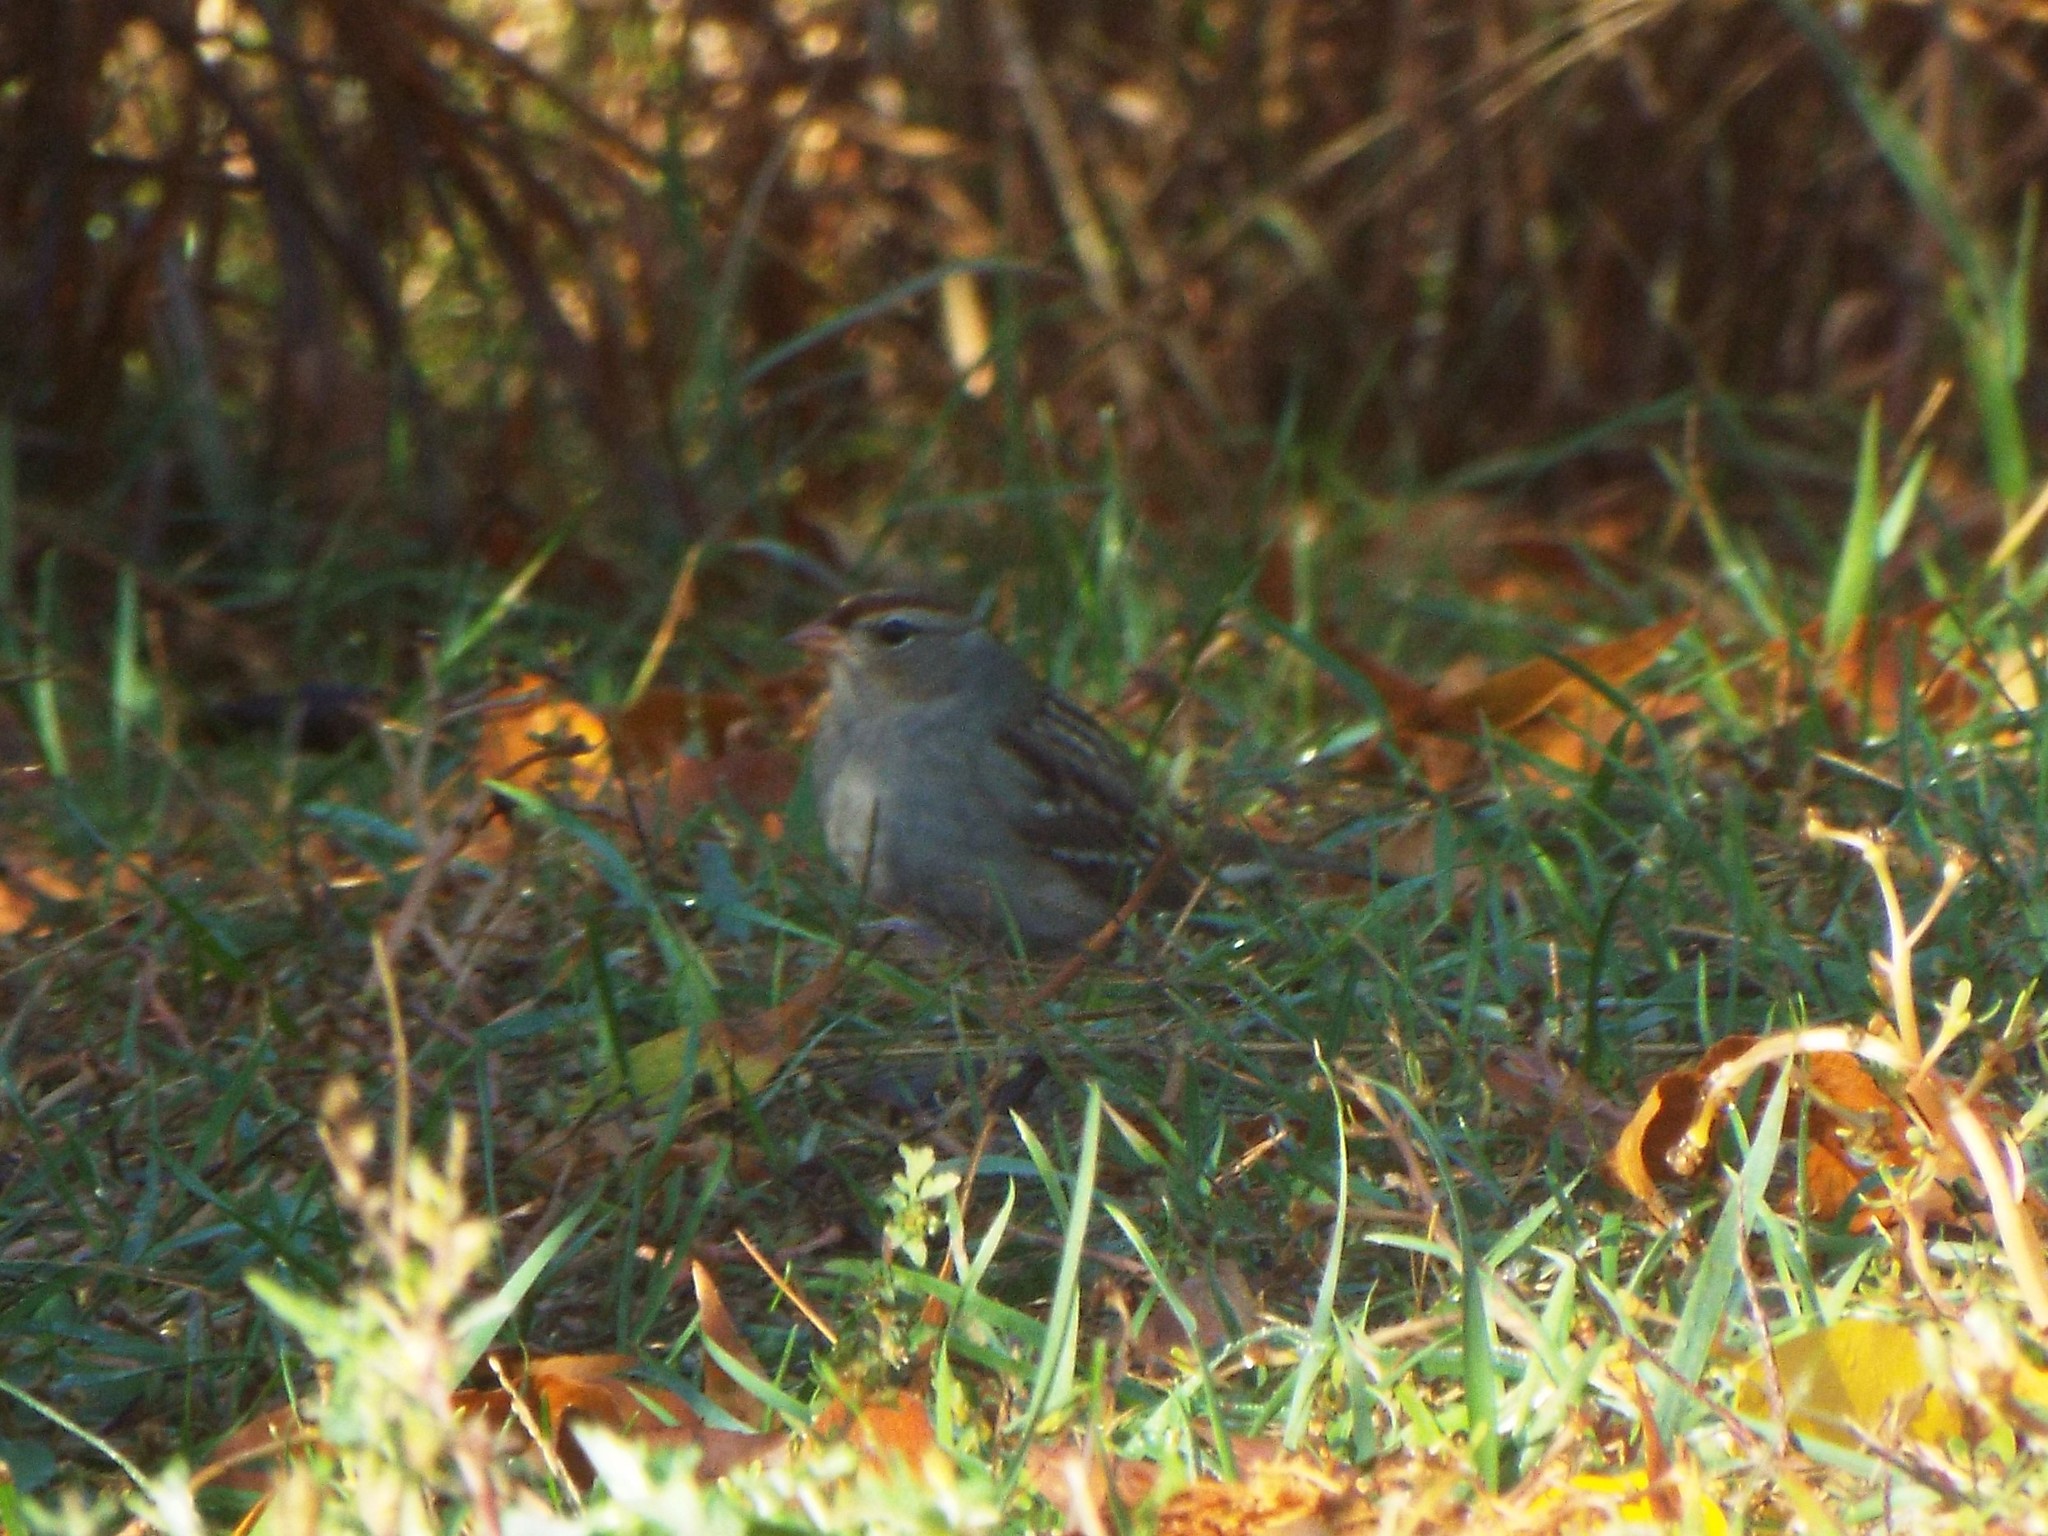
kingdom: Animalia
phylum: Chordata
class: Aves
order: Passeriformes
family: Passerellidae
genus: Zonotrichia
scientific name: Zonotrichia leucophrys
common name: White-crowned sparrow
